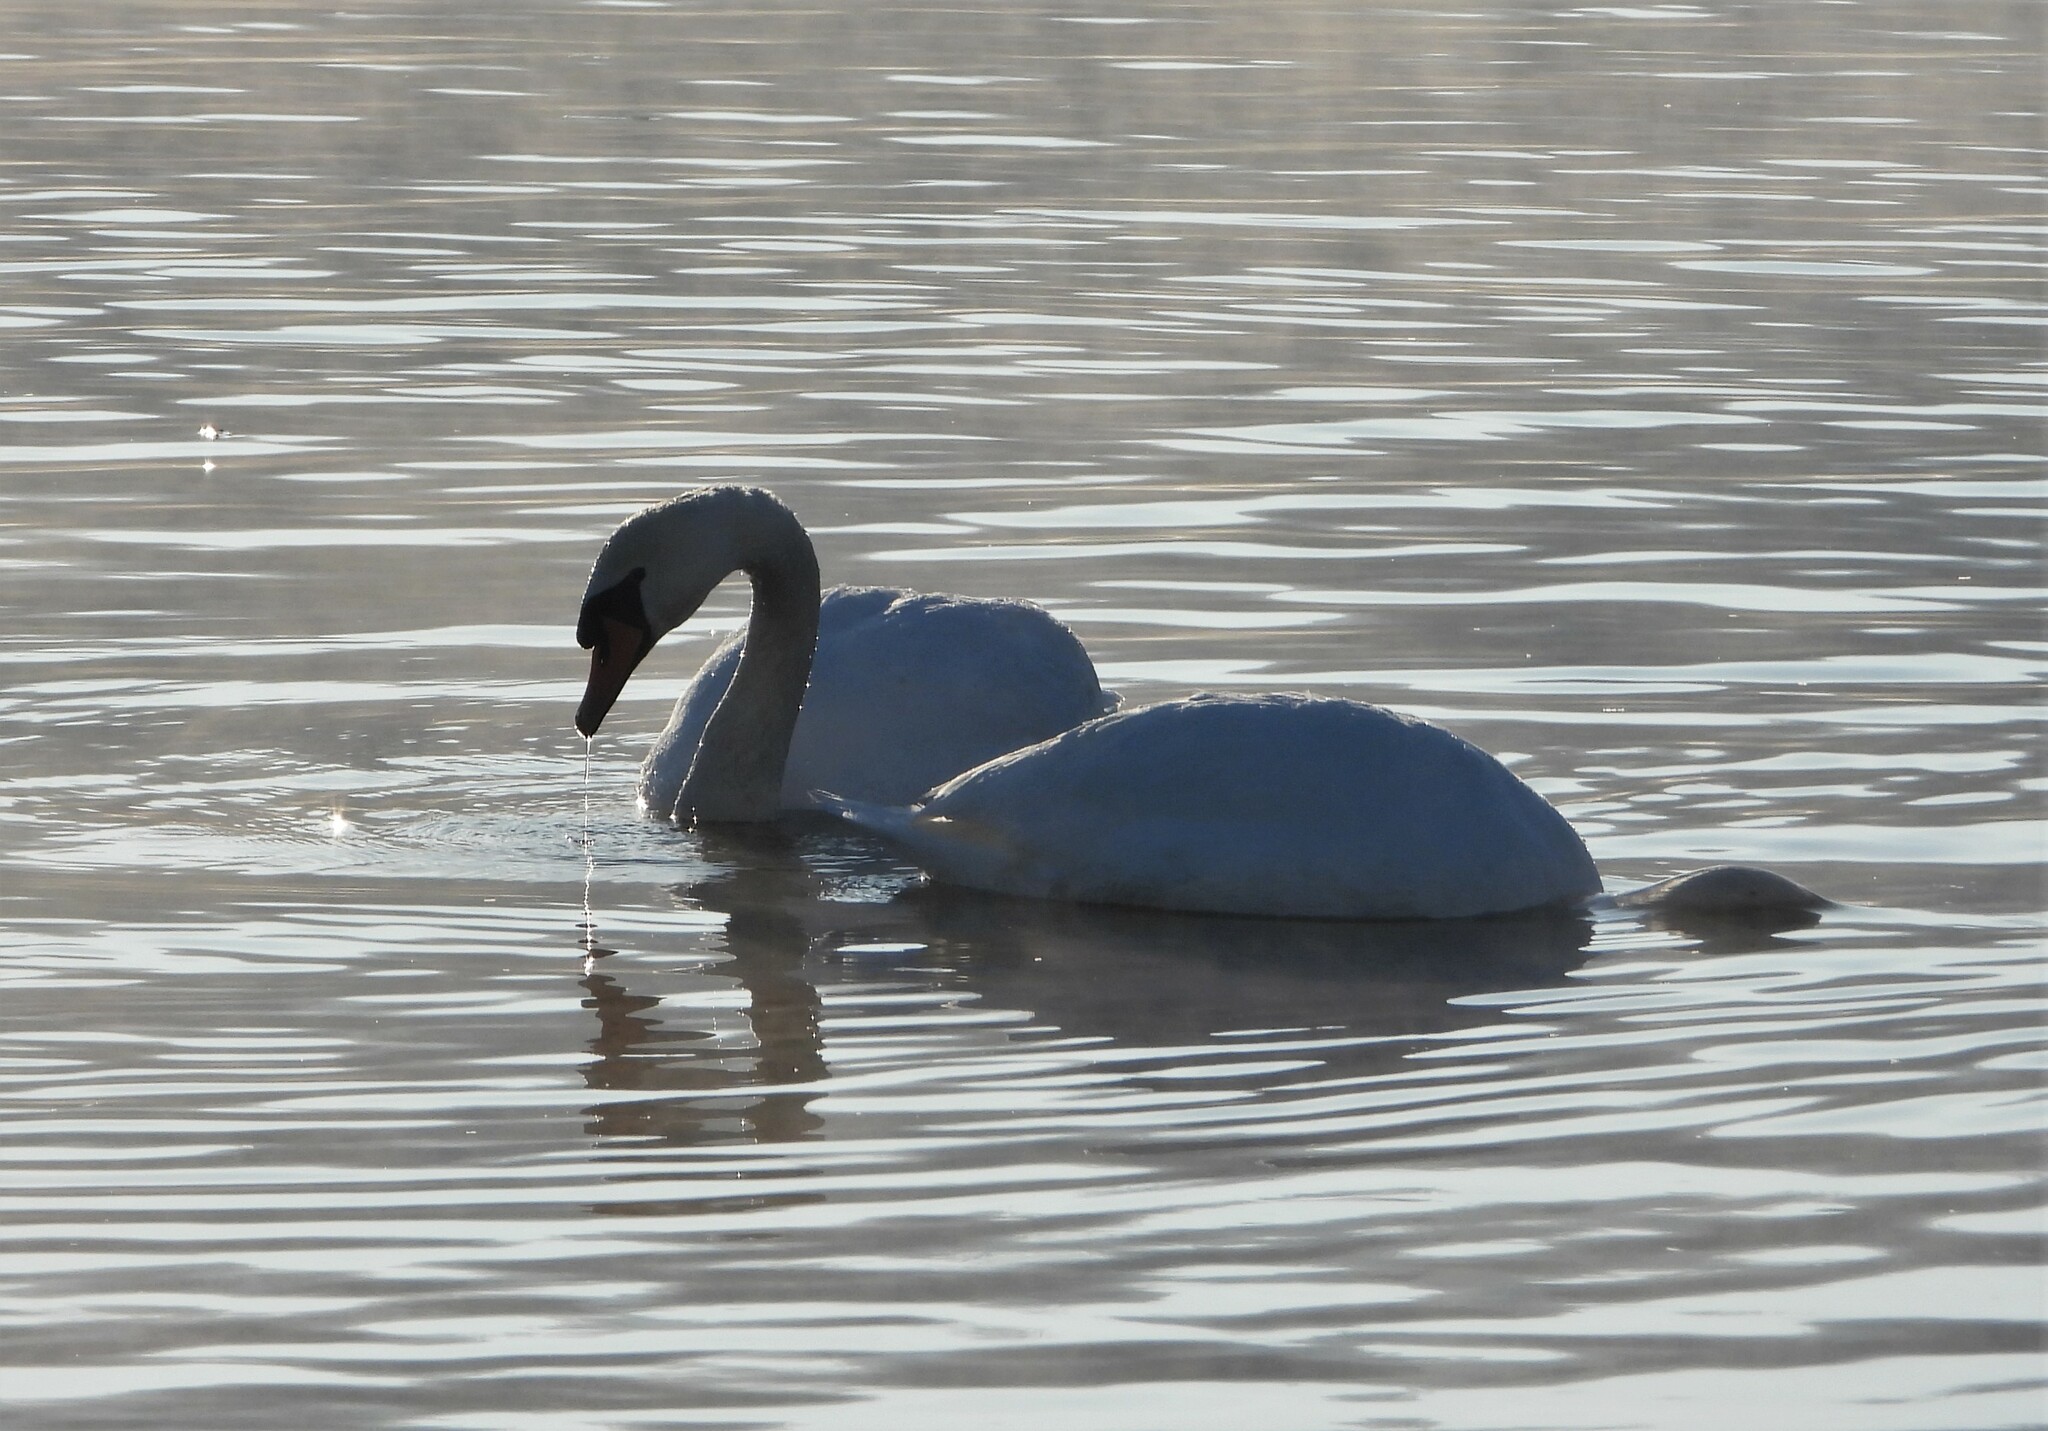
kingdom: Animalia
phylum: Chordata
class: Aves
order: Anseriformes
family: Anatidae
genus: Cygnus
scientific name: Cygnus olor
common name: Mute swan
